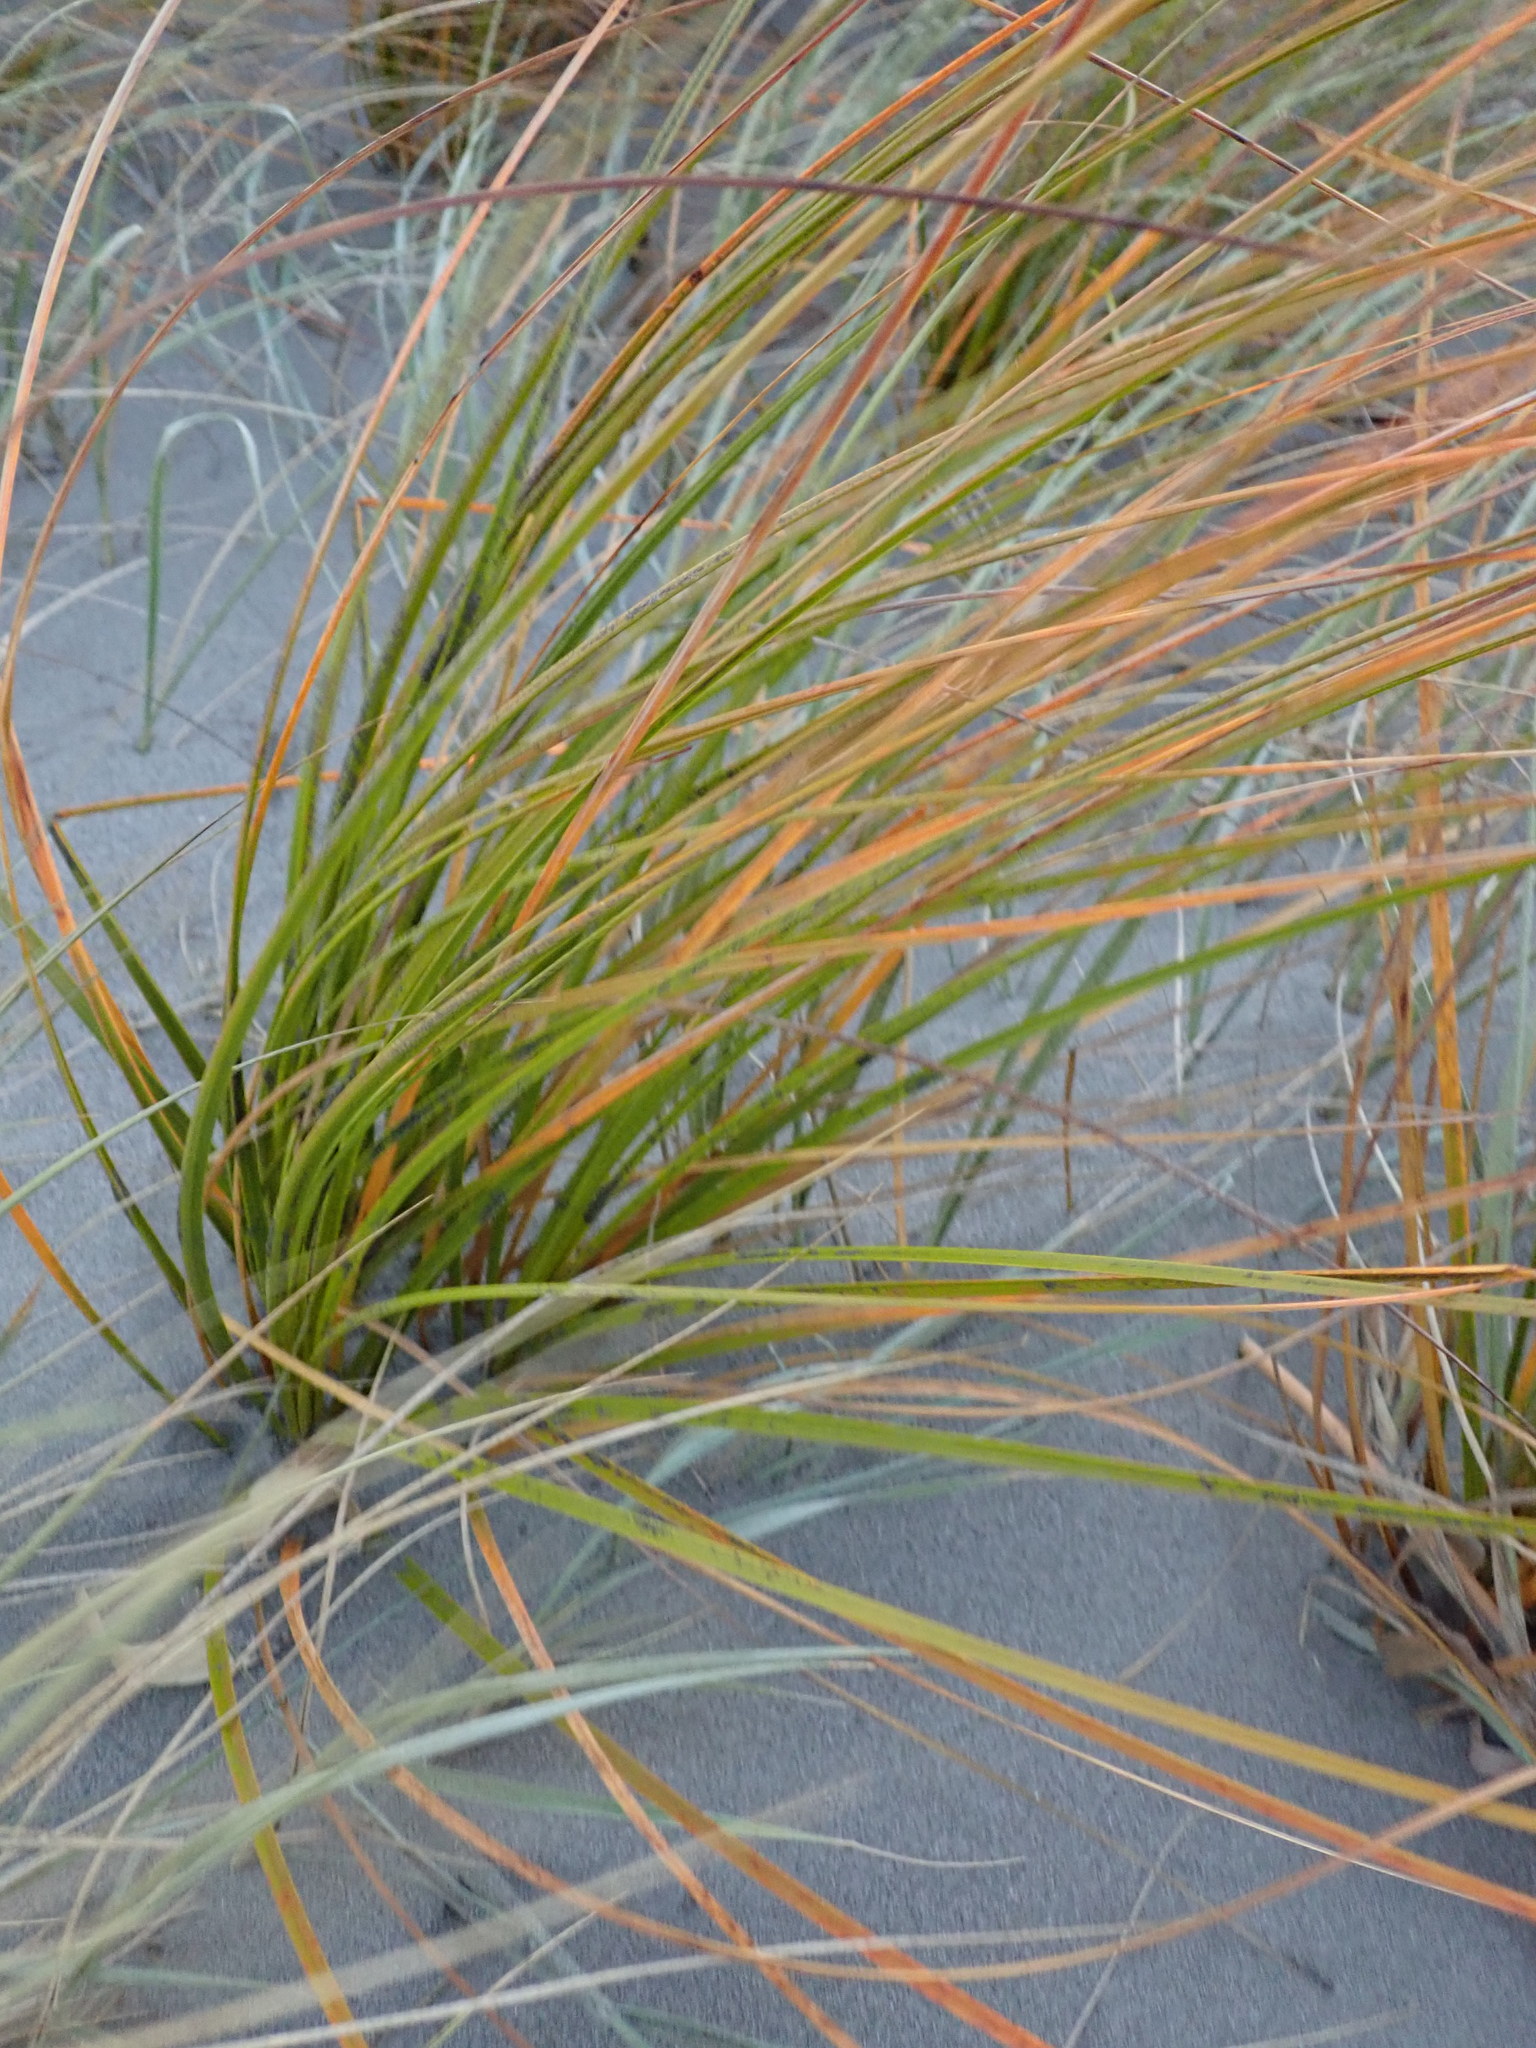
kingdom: Plantae
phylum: Tracheophyta
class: Liliopsida
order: Poales
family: Cyperaceae
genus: Ficinia
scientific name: Ficinia spiralis
